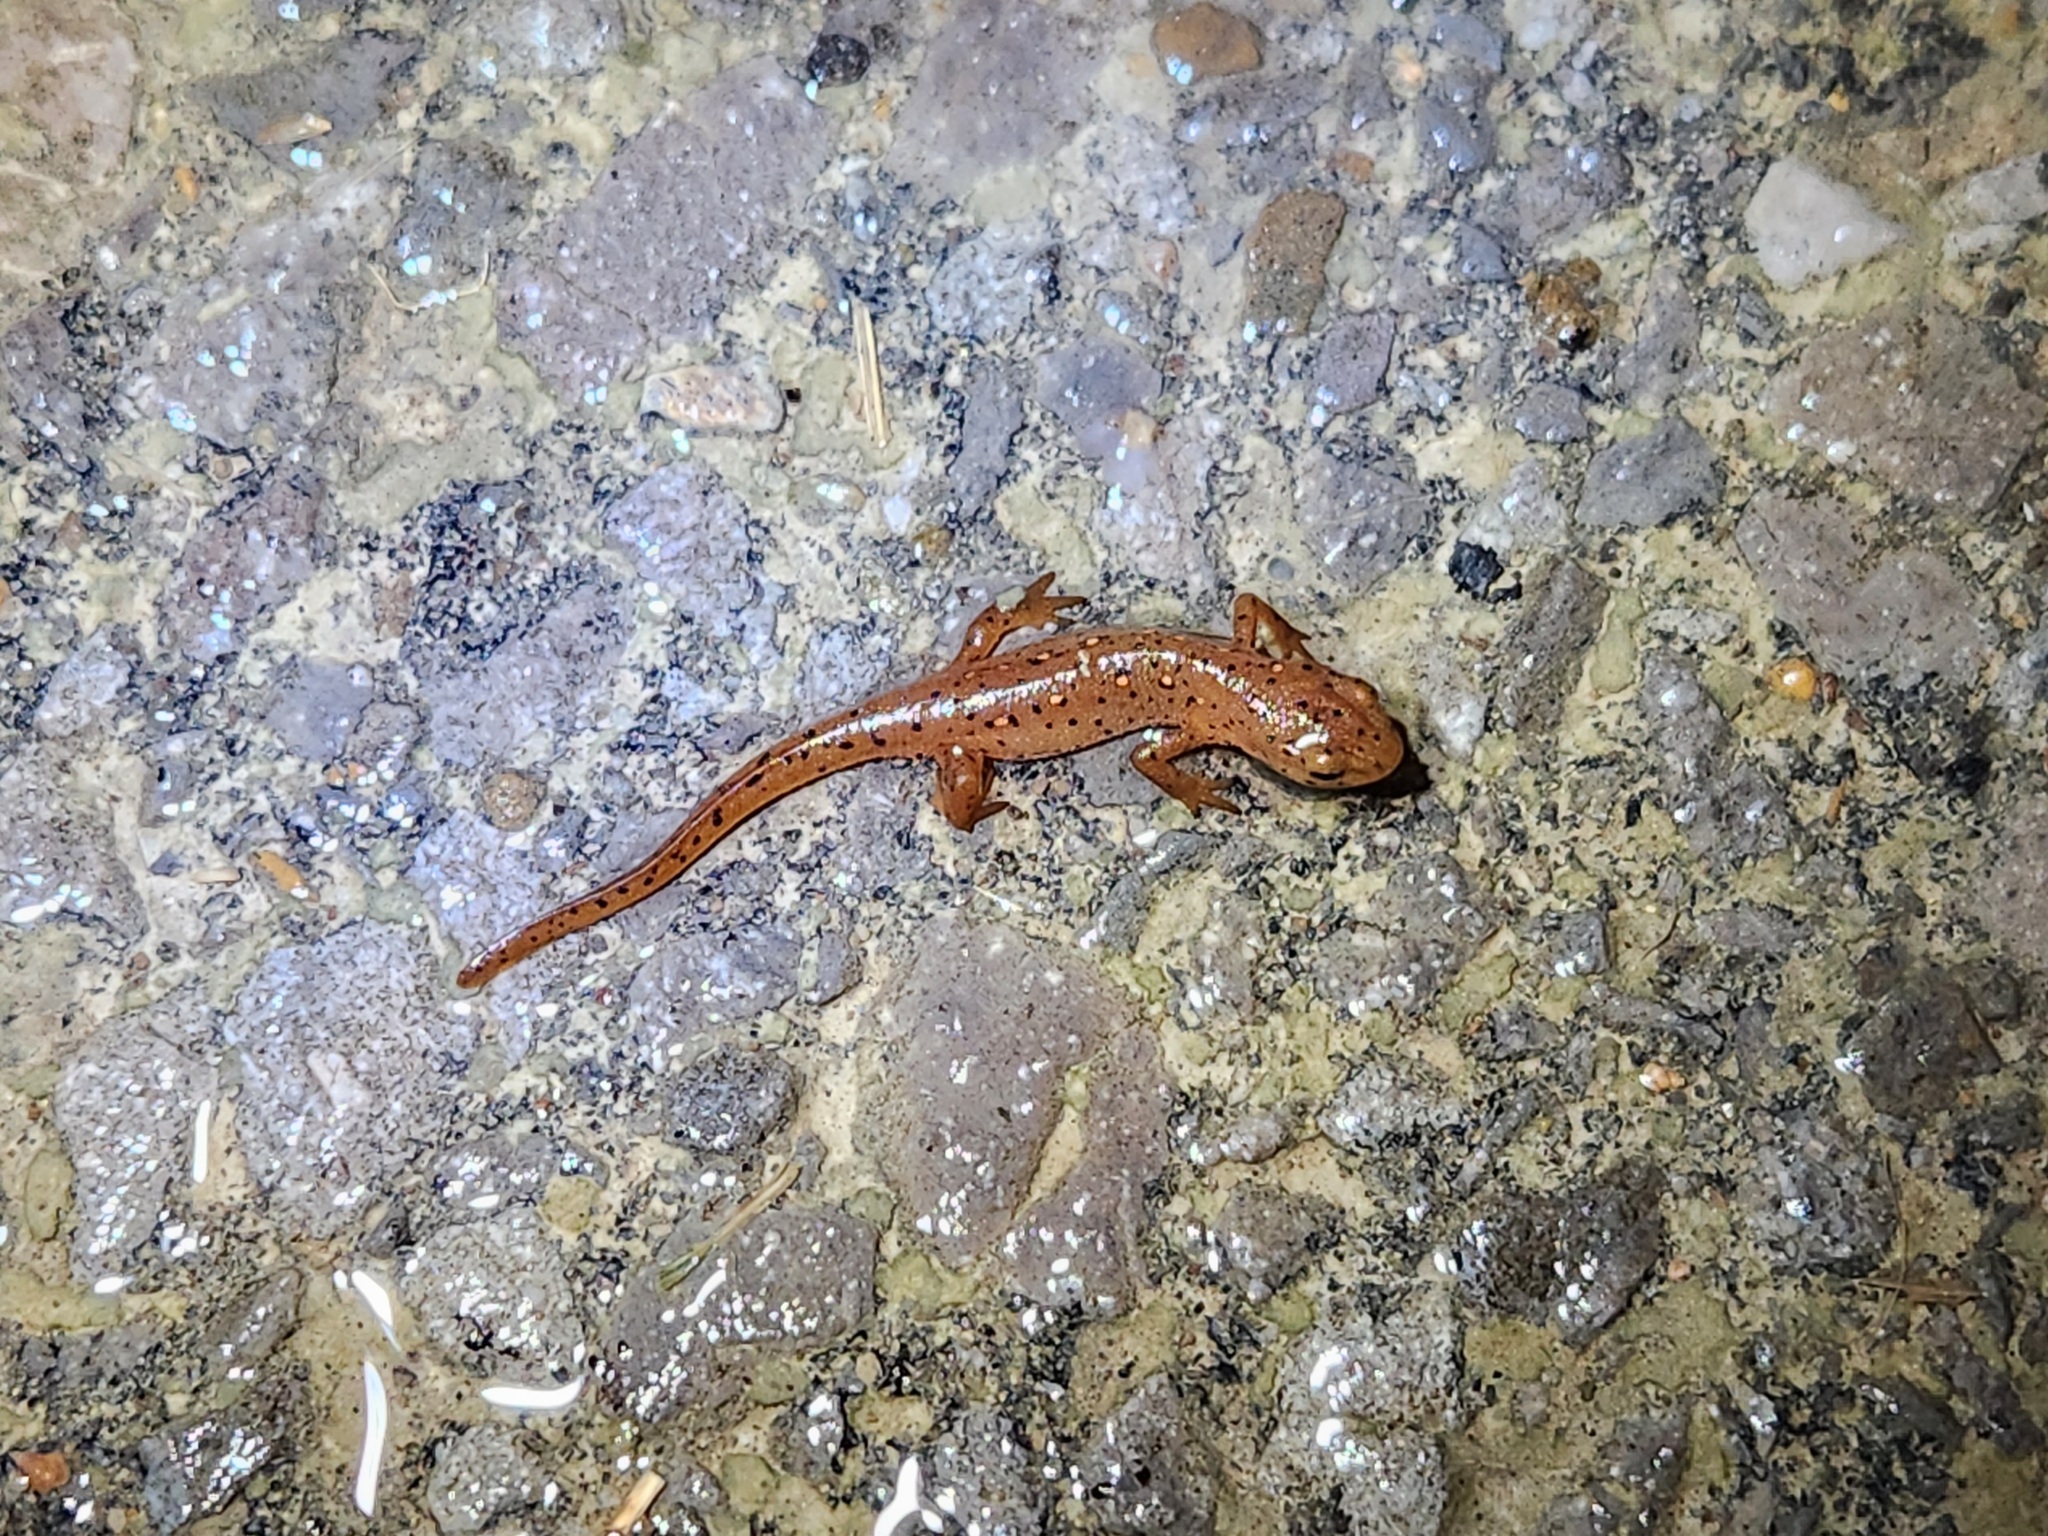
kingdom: Animalia
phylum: Chordata
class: Amphibia
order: Caudata
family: Salamandridae
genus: Notophthalmus
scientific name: Notophthalmus viridescens
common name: Eastern newt
